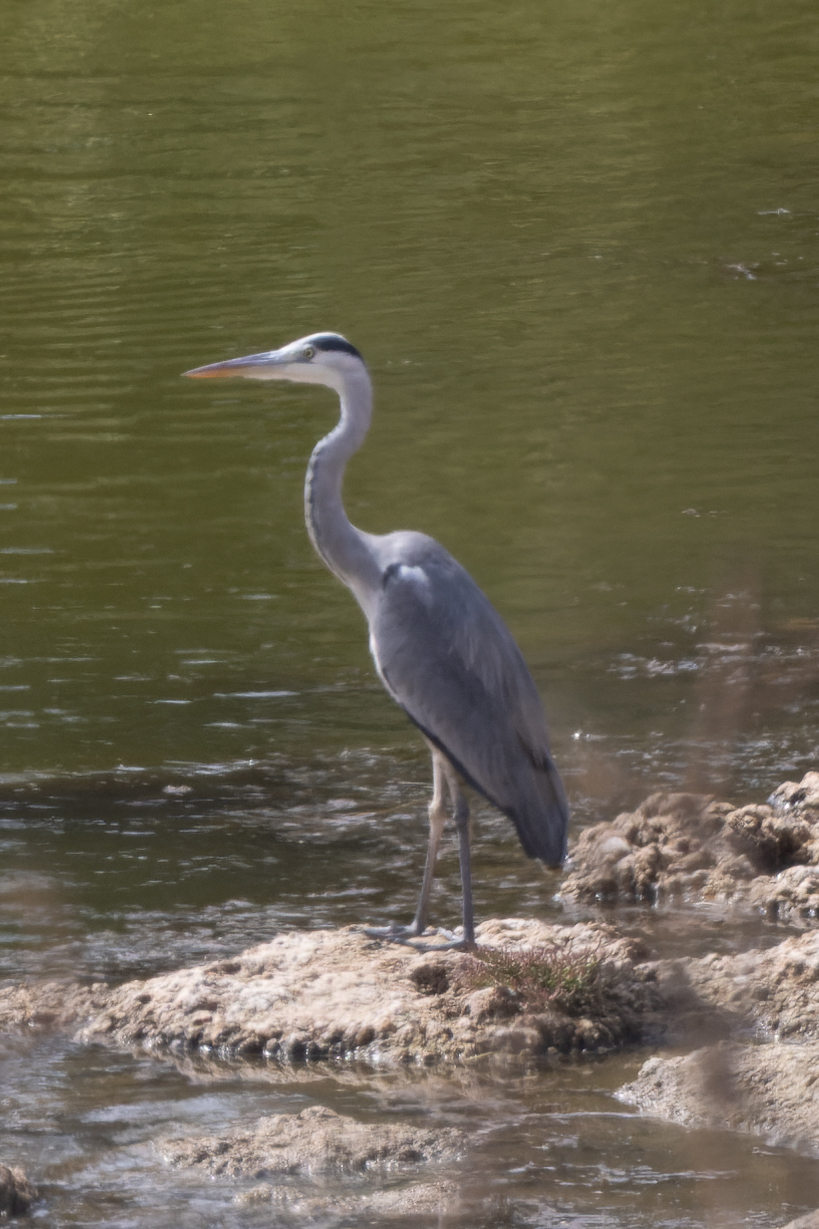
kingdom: Animalia
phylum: Chordata
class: Aves
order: Pelecaniformes
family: Ardeidae
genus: Ardea
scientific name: Ardea cinerea
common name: Grey heron
